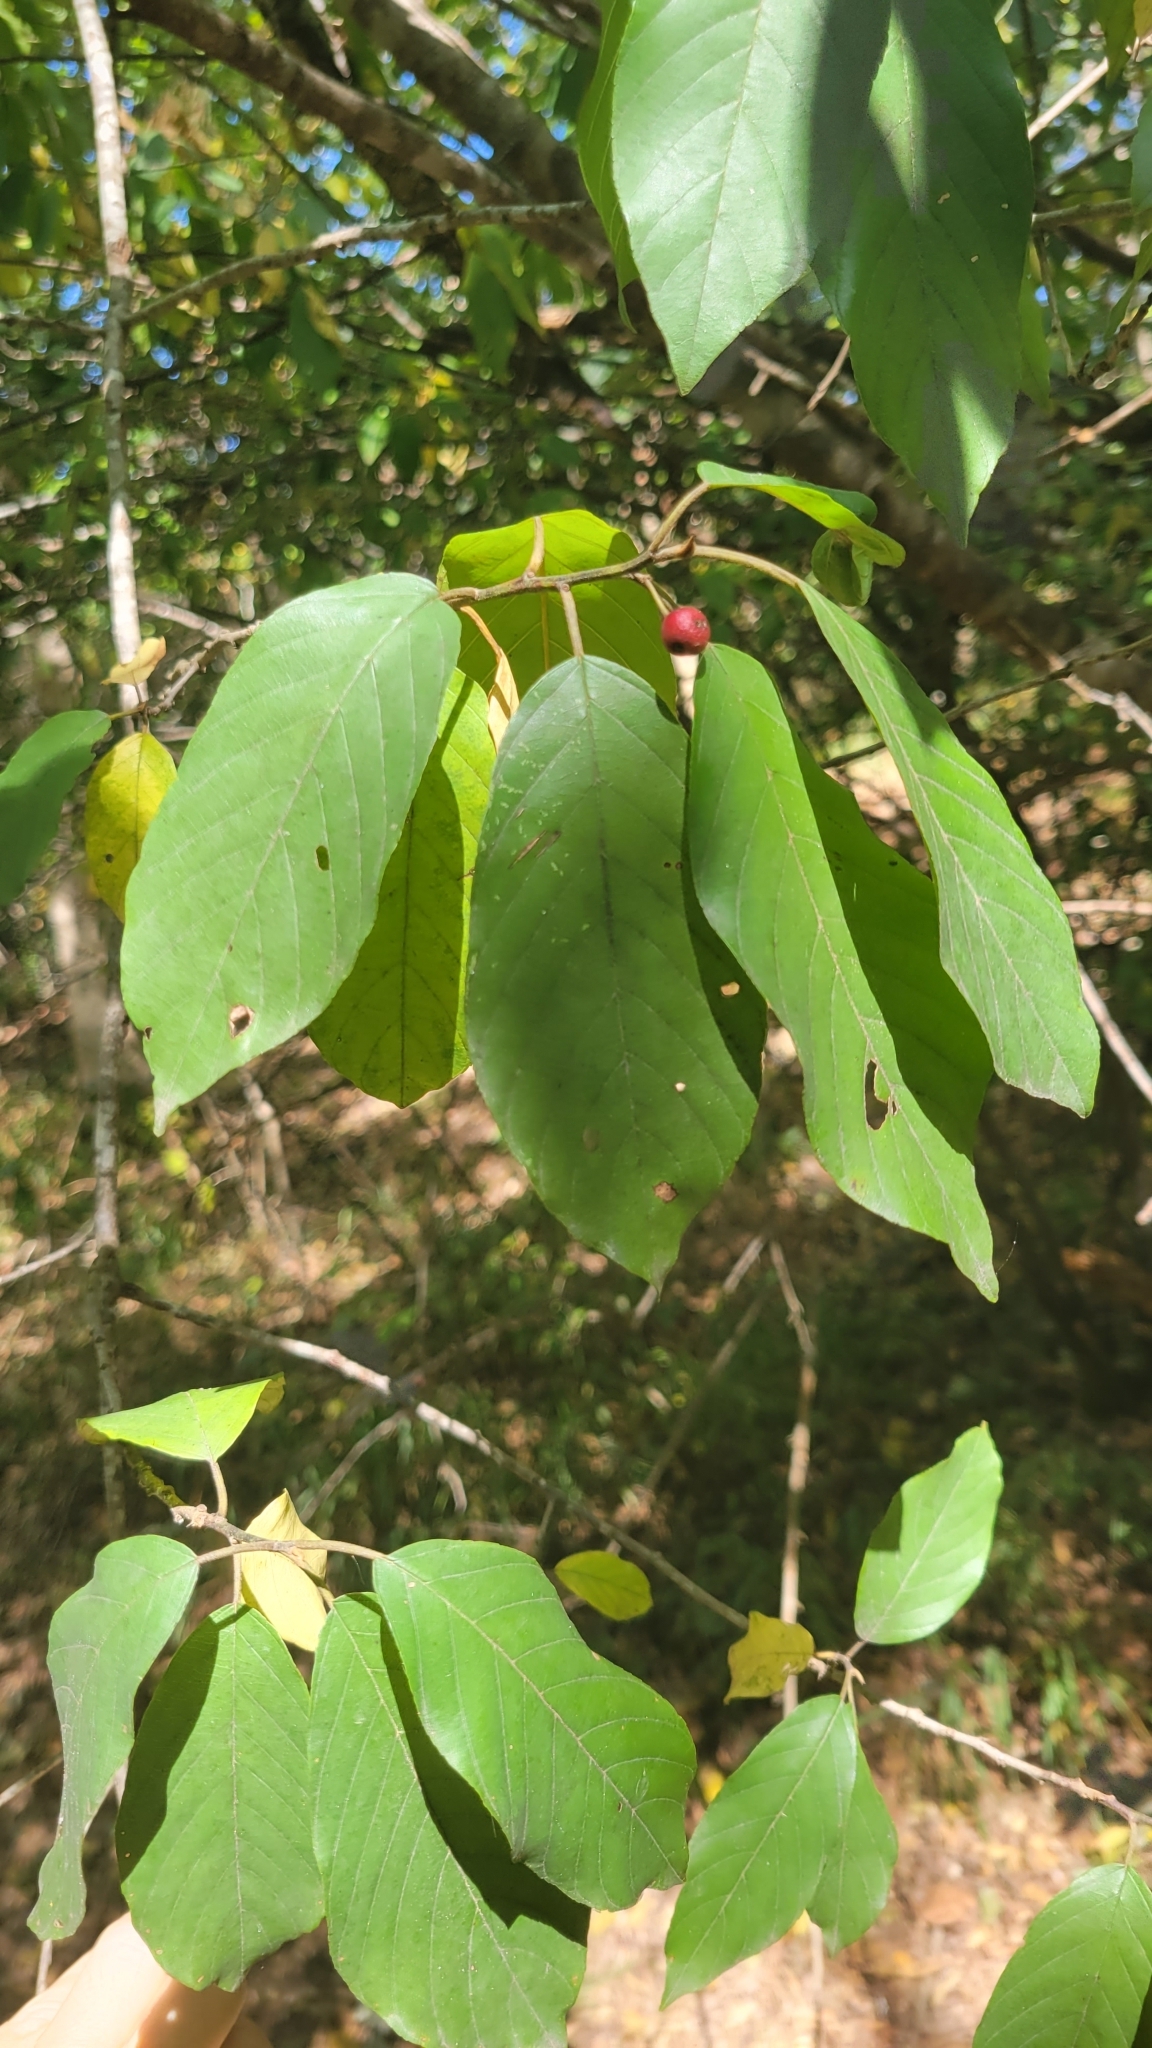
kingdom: Plantae
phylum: Tracheophyta
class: Magnoliopsida
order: Rosales
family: Rhamnaceae
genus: Frangula
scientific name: Frangula caroliniana
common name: Carolina buckthorn
